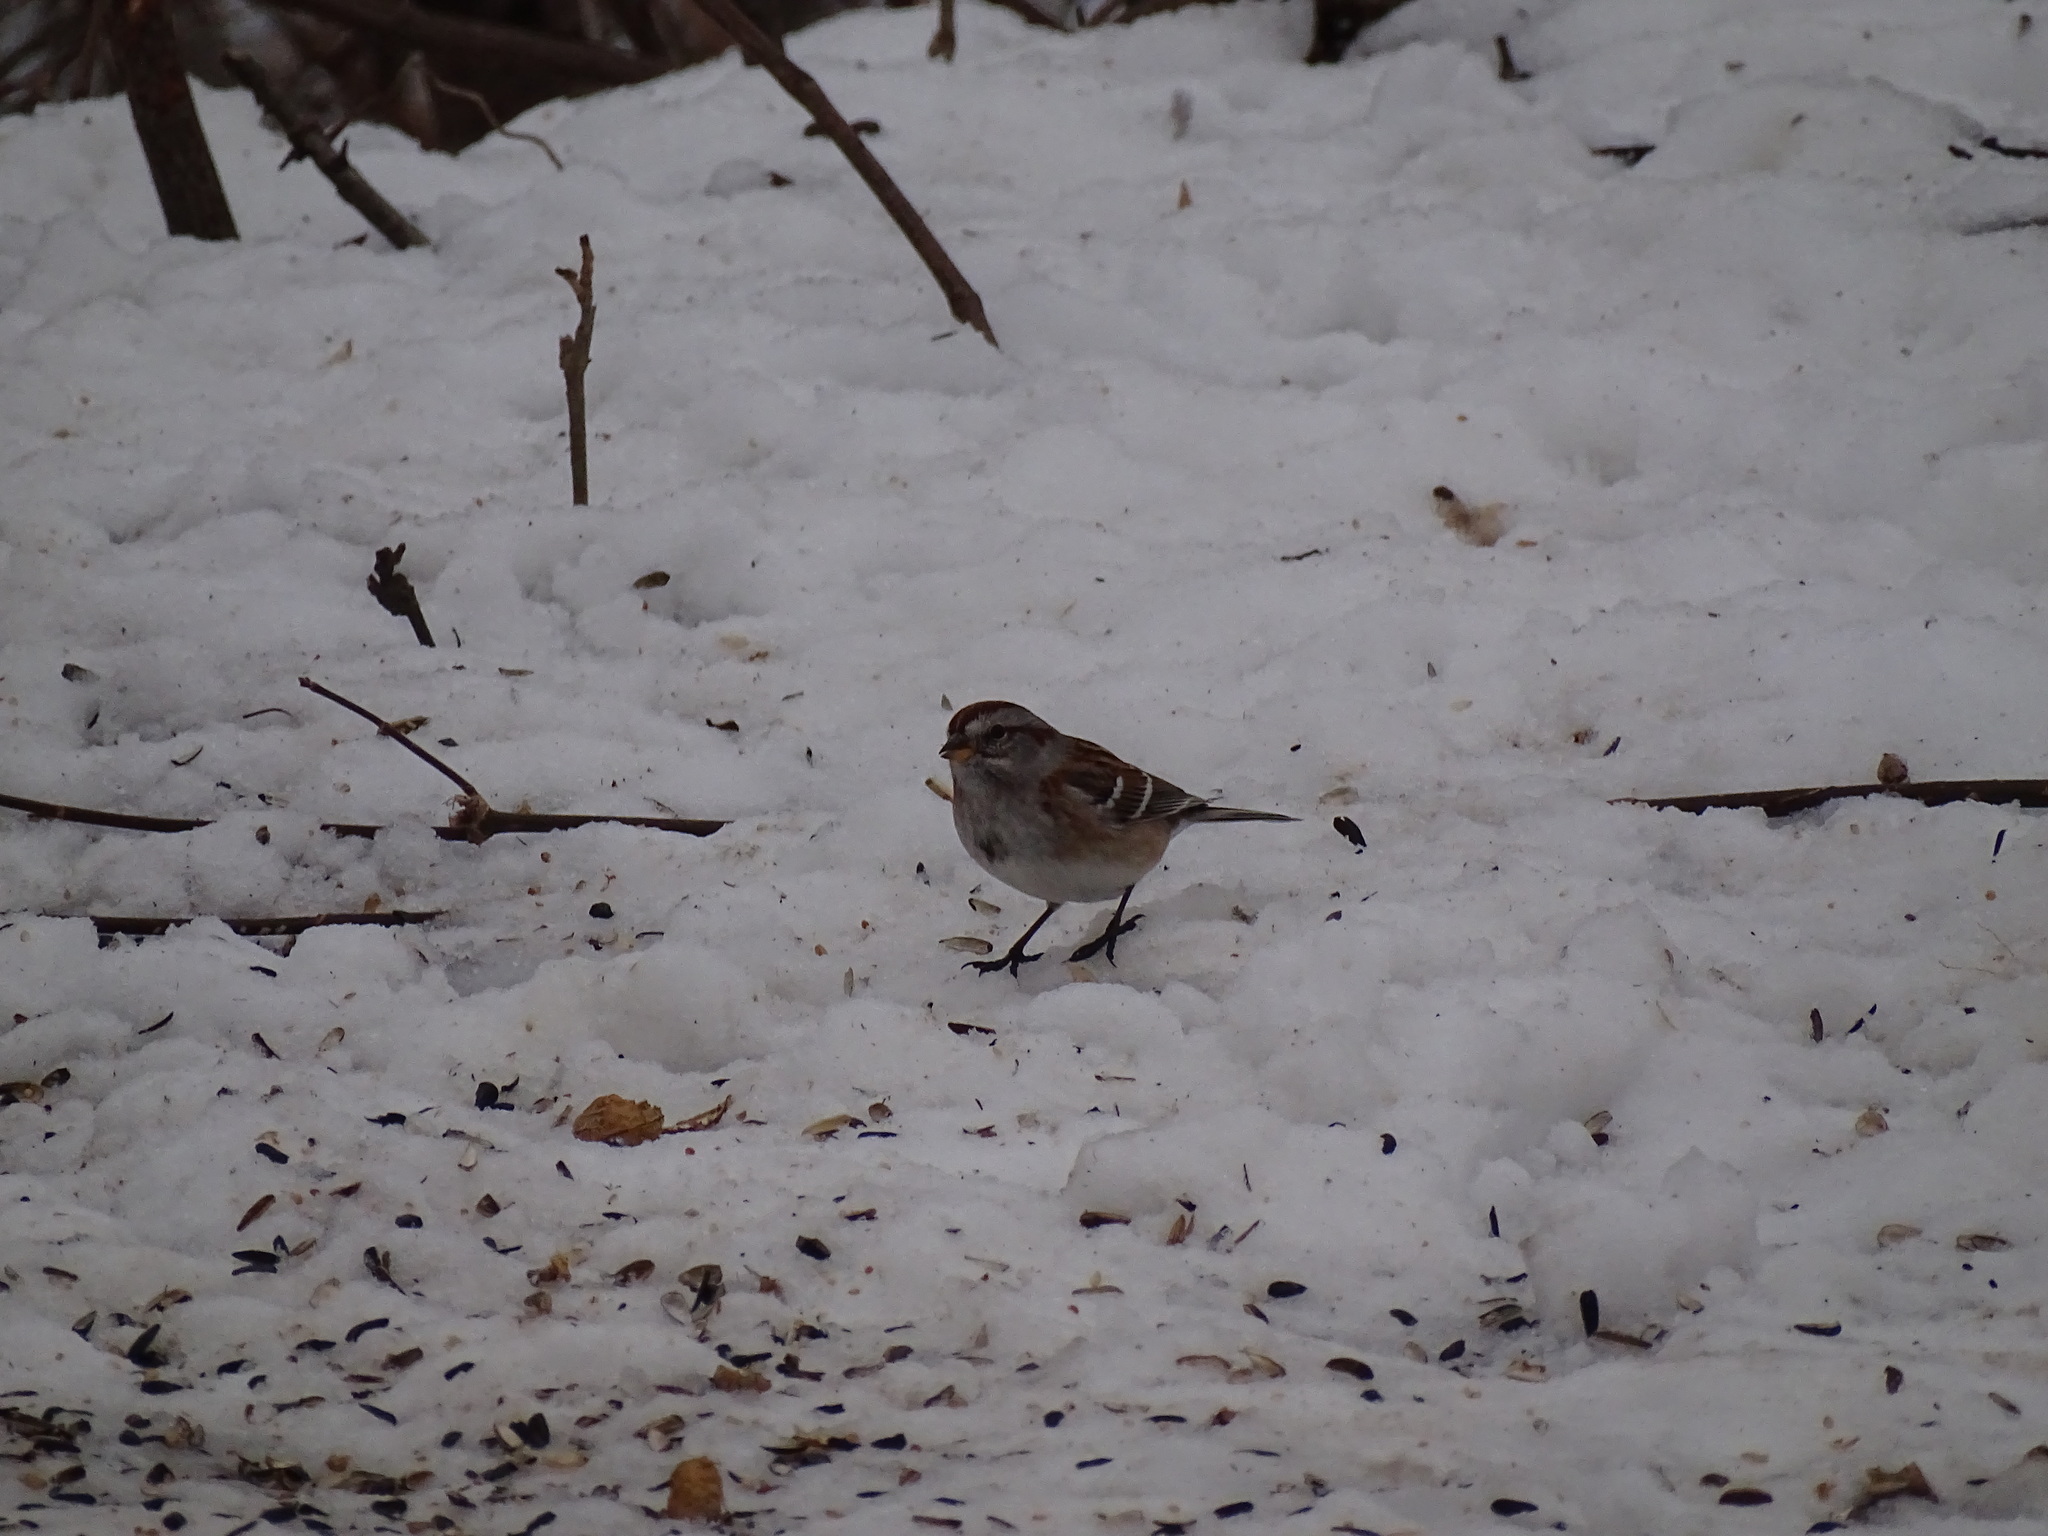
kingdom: Animalia
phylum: Chordata
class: Aves
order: Passeriformes
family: Passerellidae
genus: Spizelloides
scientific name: Spizelloides arborea
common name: American tree sparrow
